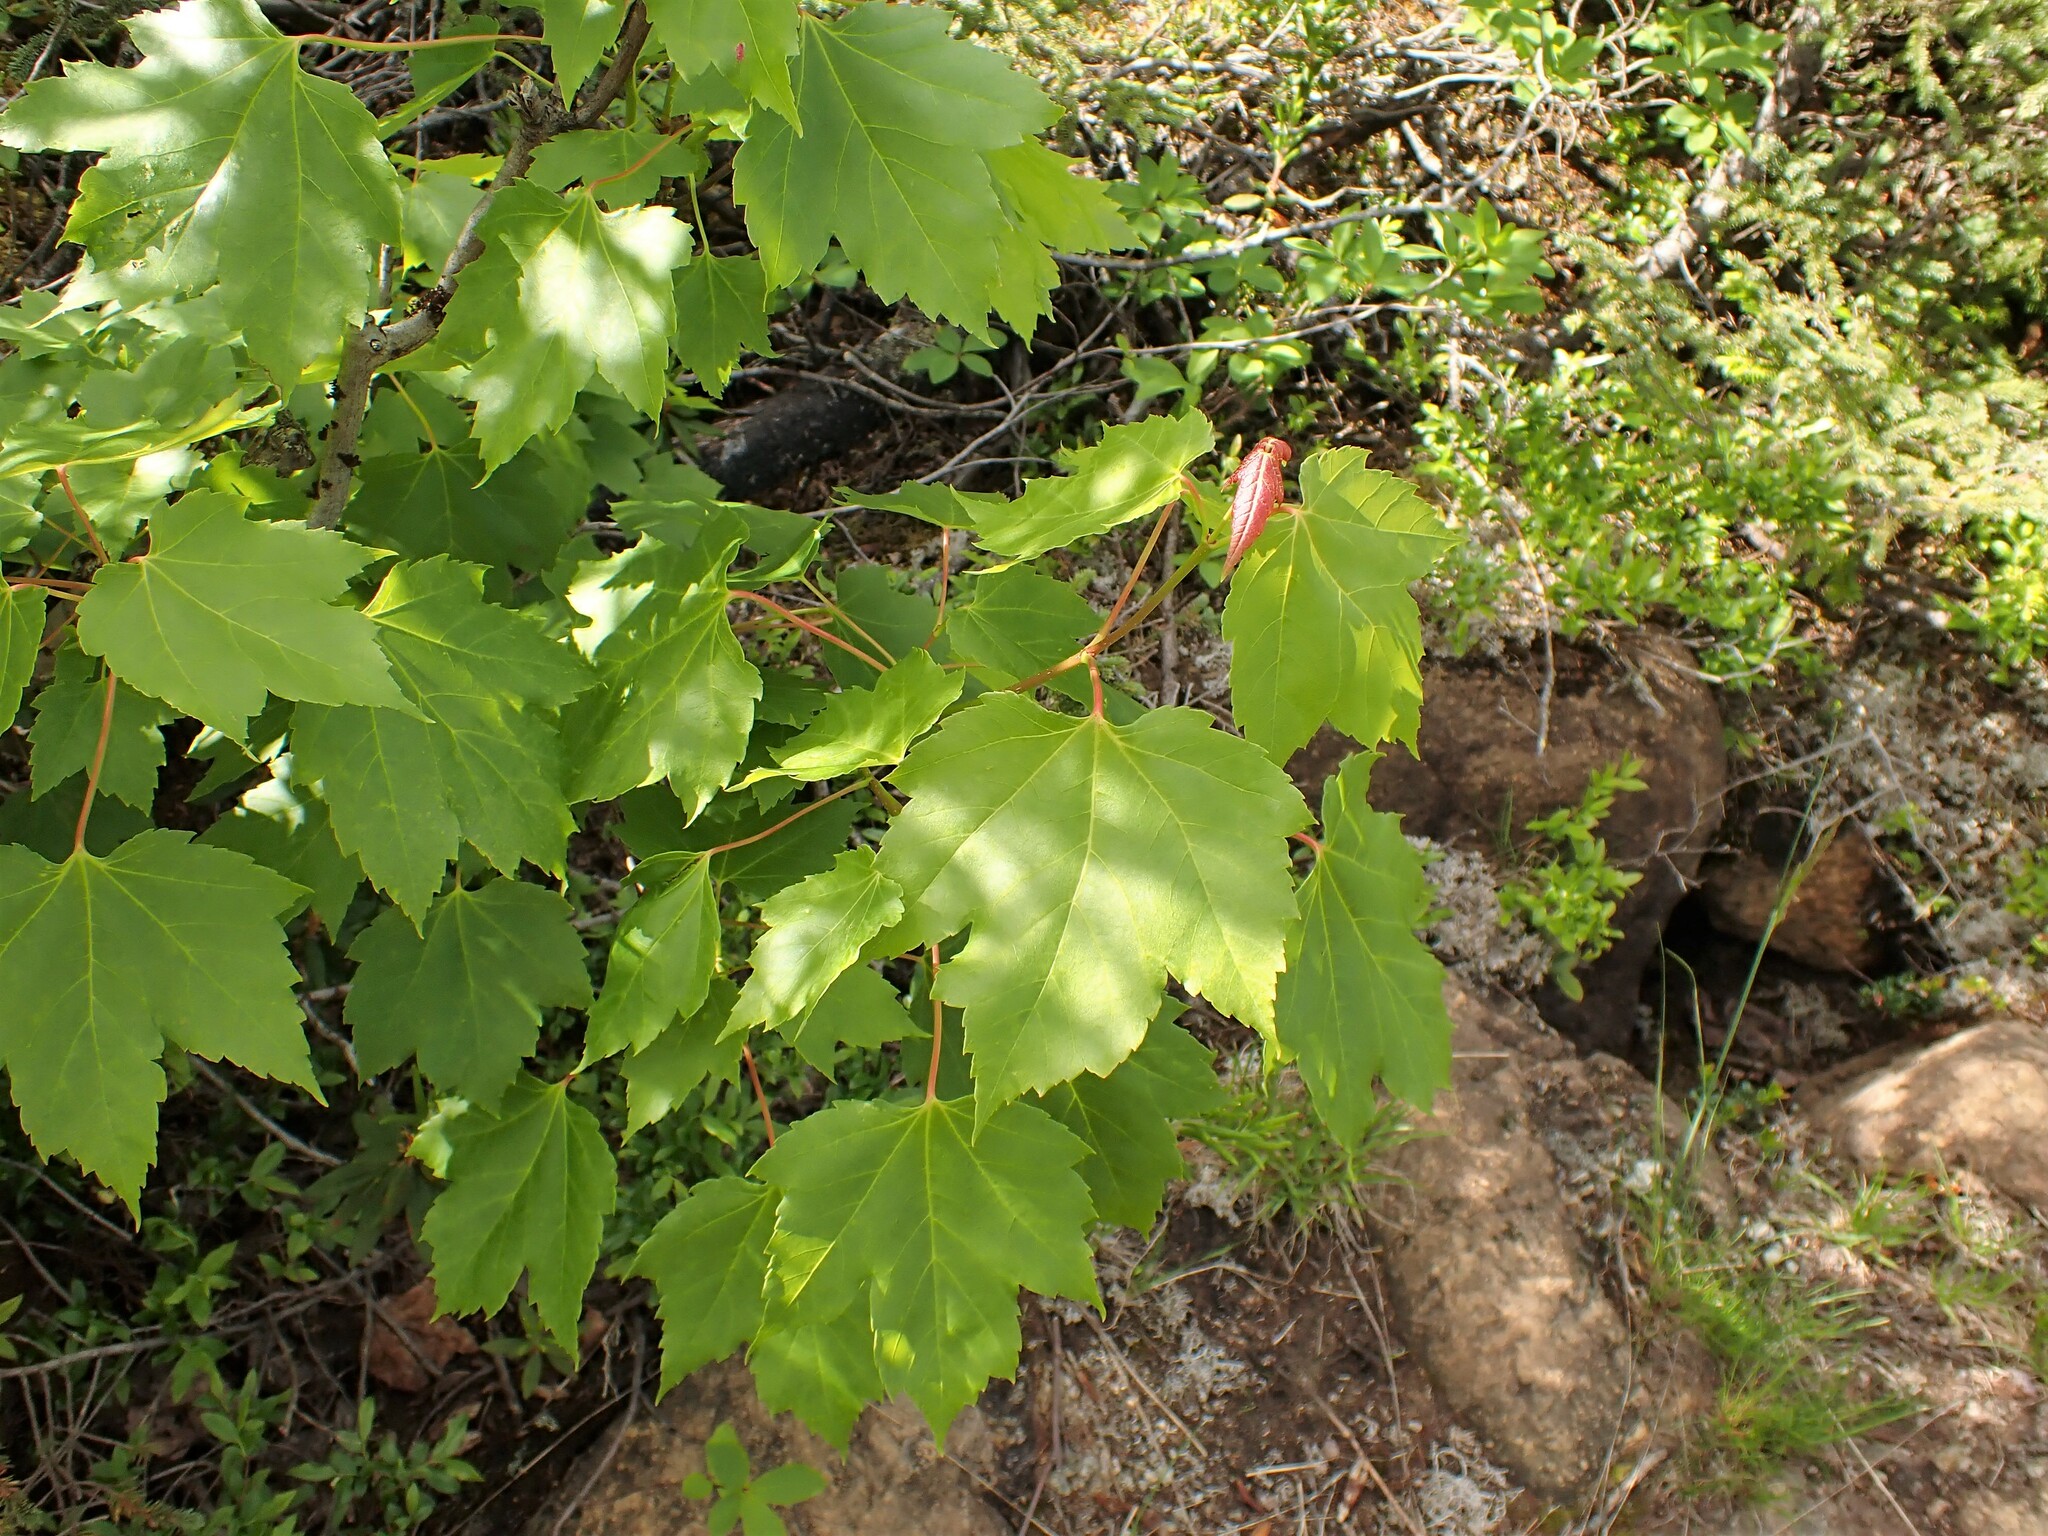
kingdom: Plantae
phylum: Tracheophyta
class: Magnoliopsida
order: Sapindales
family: Sapindaceae
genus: Acer
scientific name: Acer rubrum
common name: Red maple
